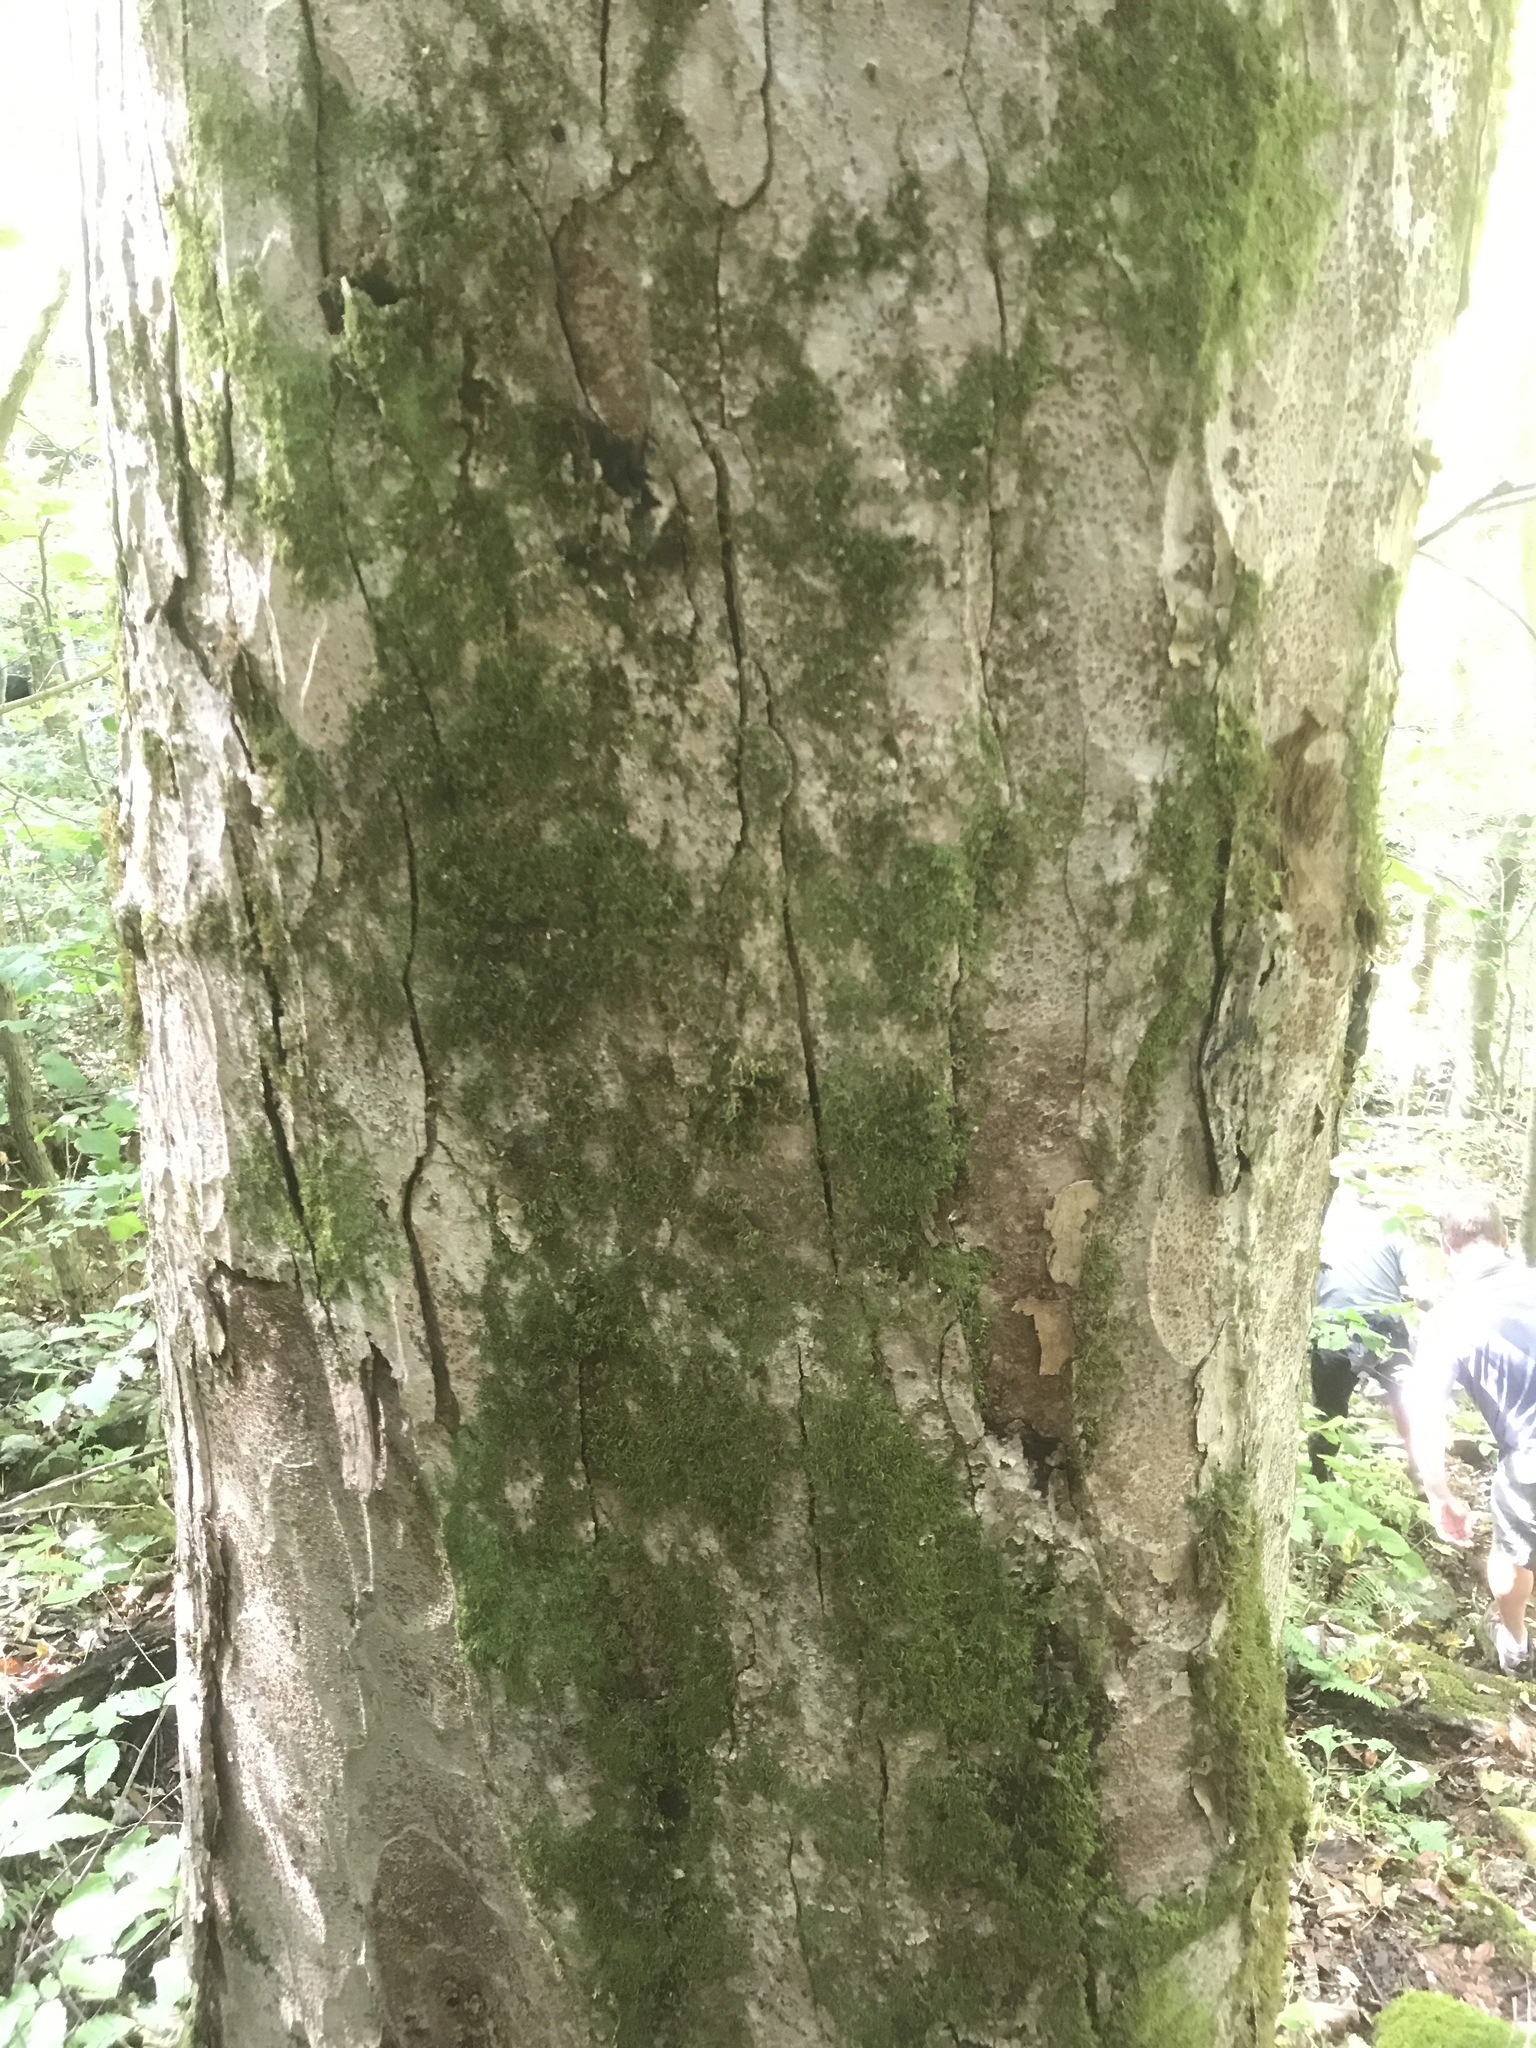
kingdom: Plantae
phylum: Tracheophyta
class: Magnoliopsida
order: Sapindales
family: Sapindaceae
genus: Aesculus
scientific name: Aesculus flava
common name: Yellow buckeye
